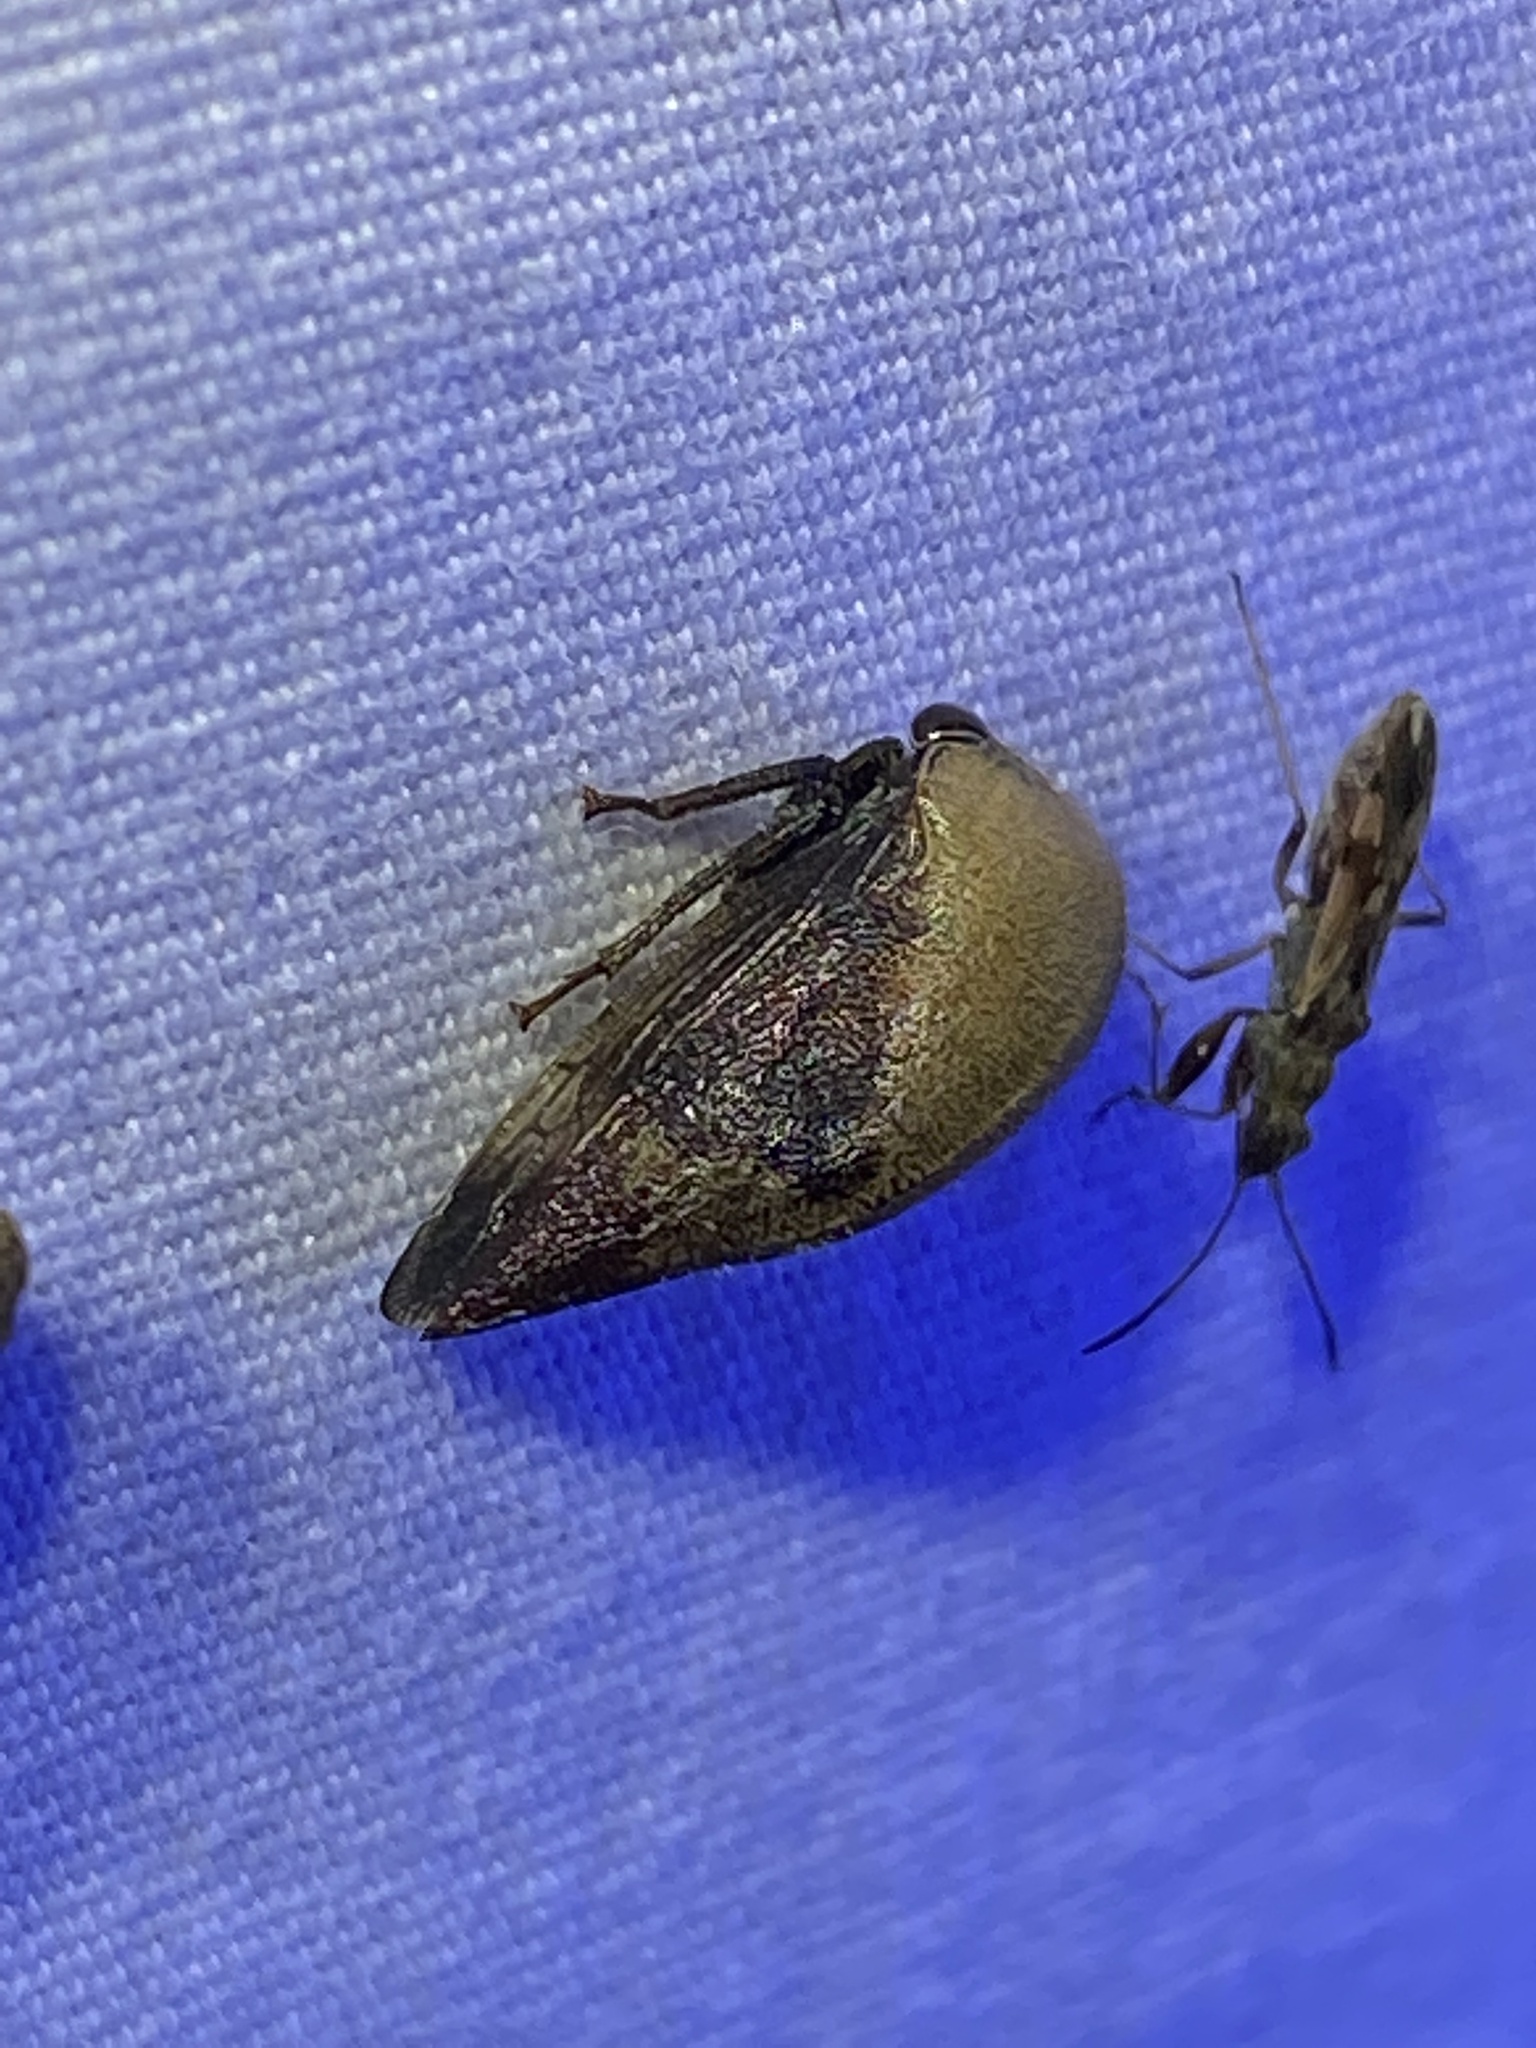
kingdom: Animalia
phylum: Arthropoda
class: Insecta
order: Hemiptera
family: Membracidae
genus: Carynota
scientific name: Carynota mera
